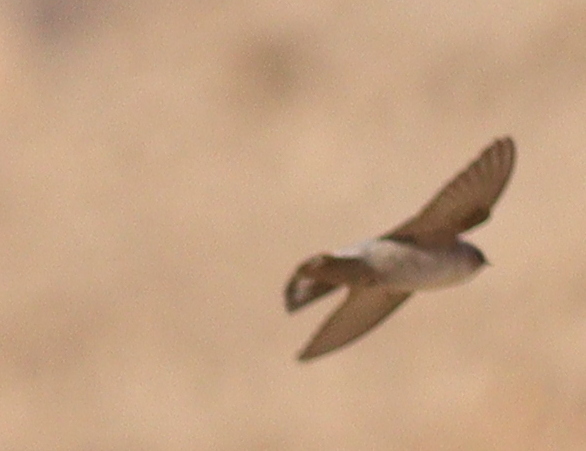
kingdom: Animalia
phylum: Chordata
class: Aves
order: Passeriformes
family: Hirundinidae
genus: Ptyonoprogne
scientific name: Ptyonoprogne fuligula
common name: Rock martin
